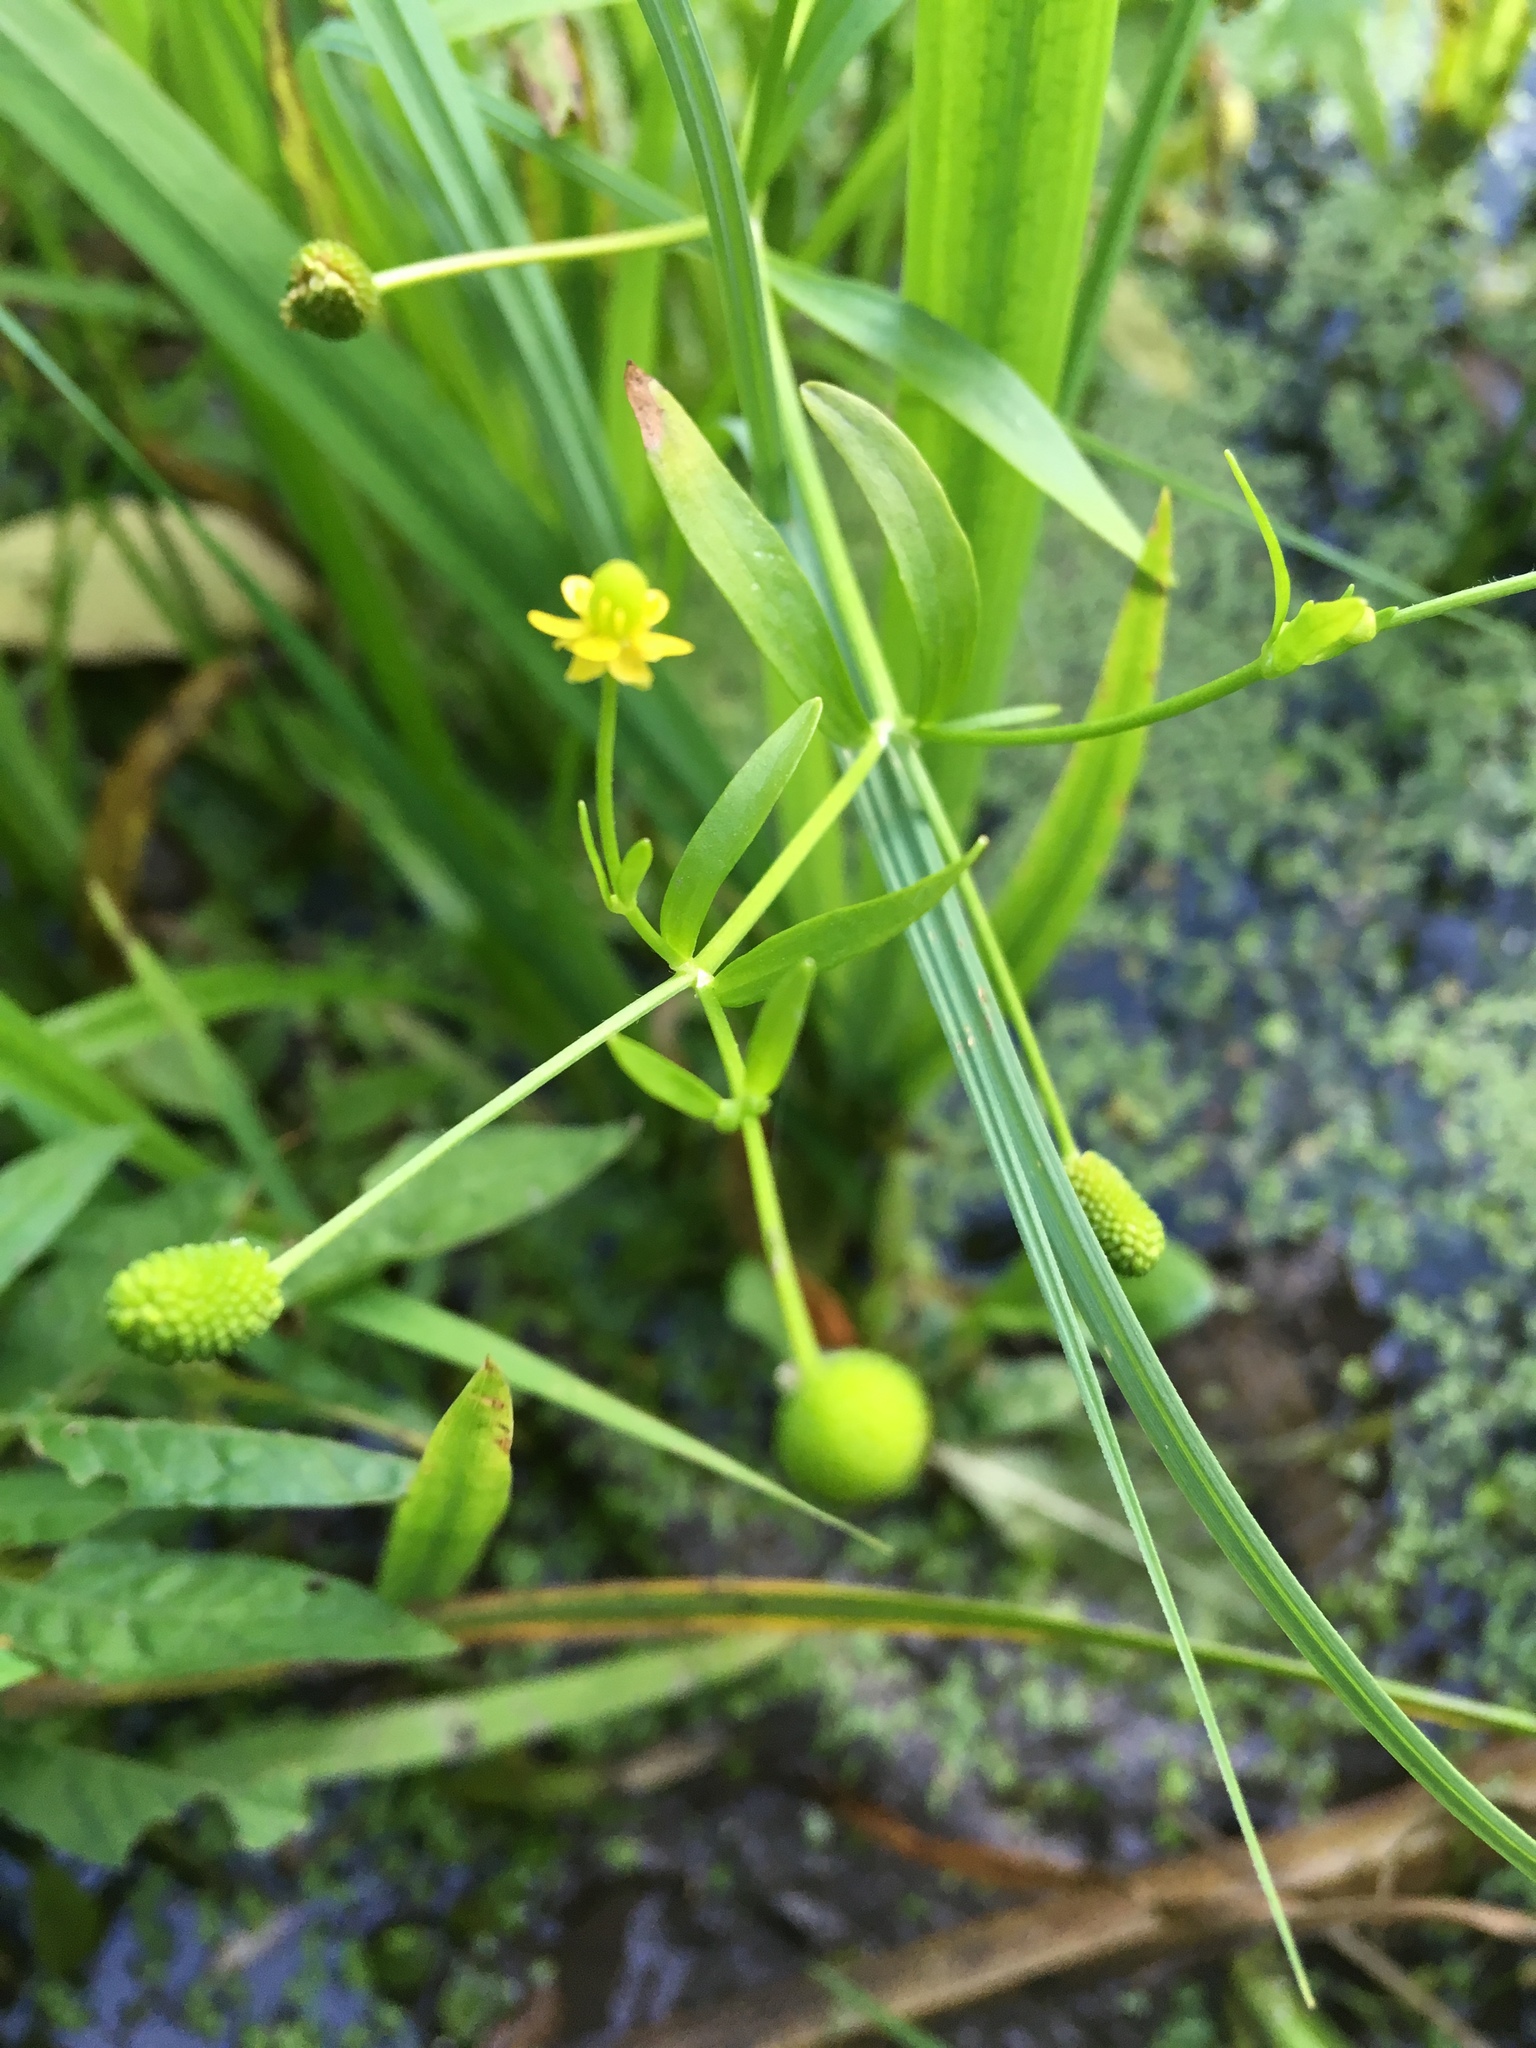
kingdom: Plantae
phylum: Tracheophyta
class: Magnoliopsida
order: Ranunculales
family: Ranunculaceae
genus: Ranunculus
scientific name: Ranunculus sceleratus
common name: Celery-leaved buttercup
